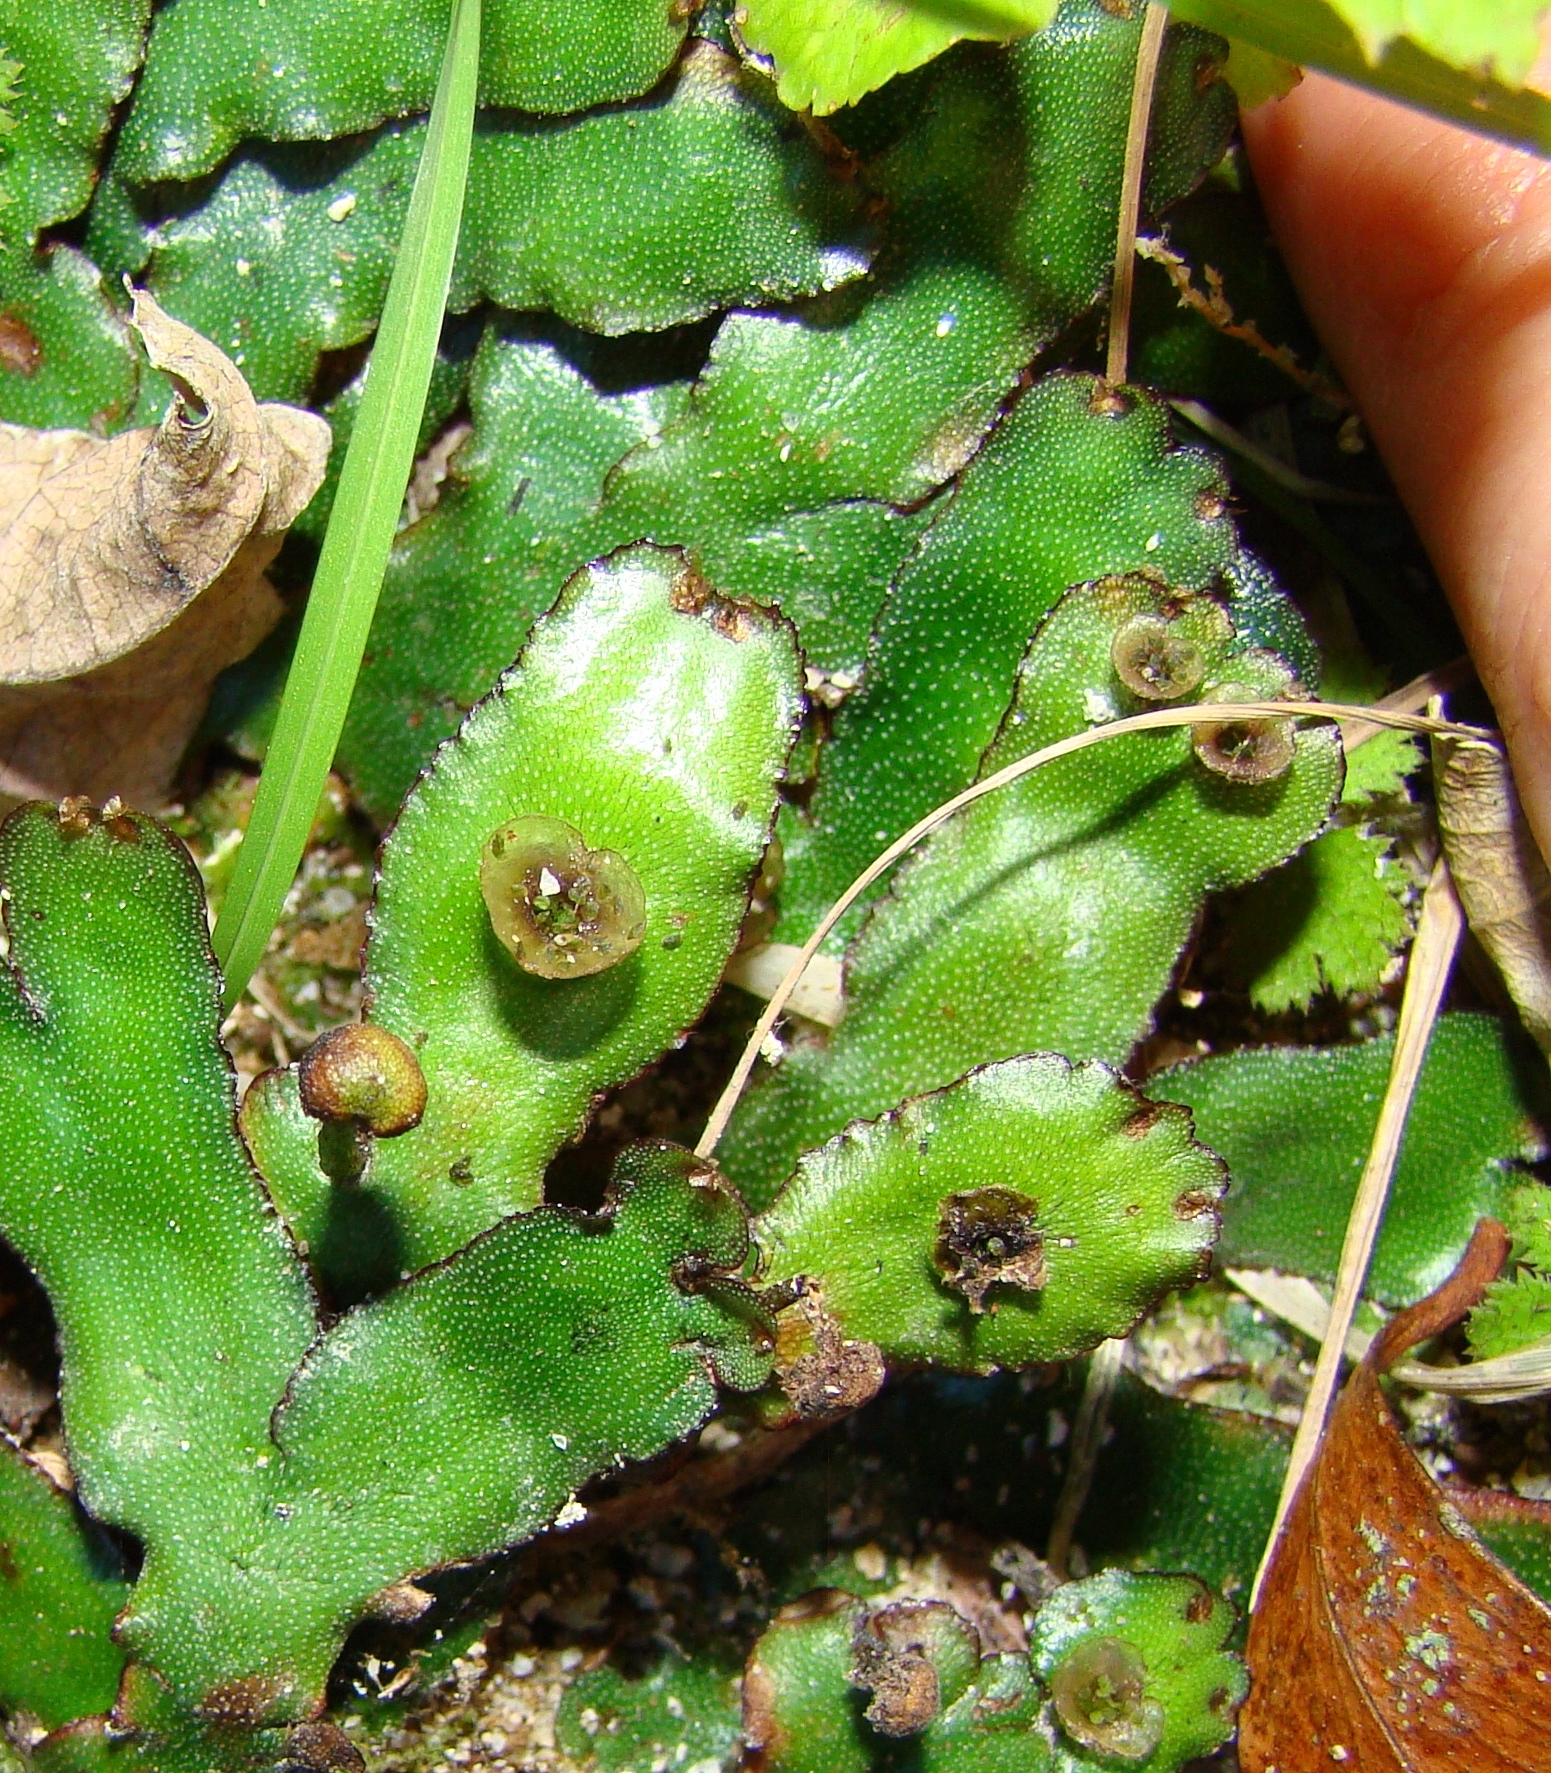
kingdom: Plantae
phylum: Marchantiophyta
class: Marchantiopsida
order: Marchantiales
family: Marchantiaceae
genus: Marchantia
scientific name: Marchantia
